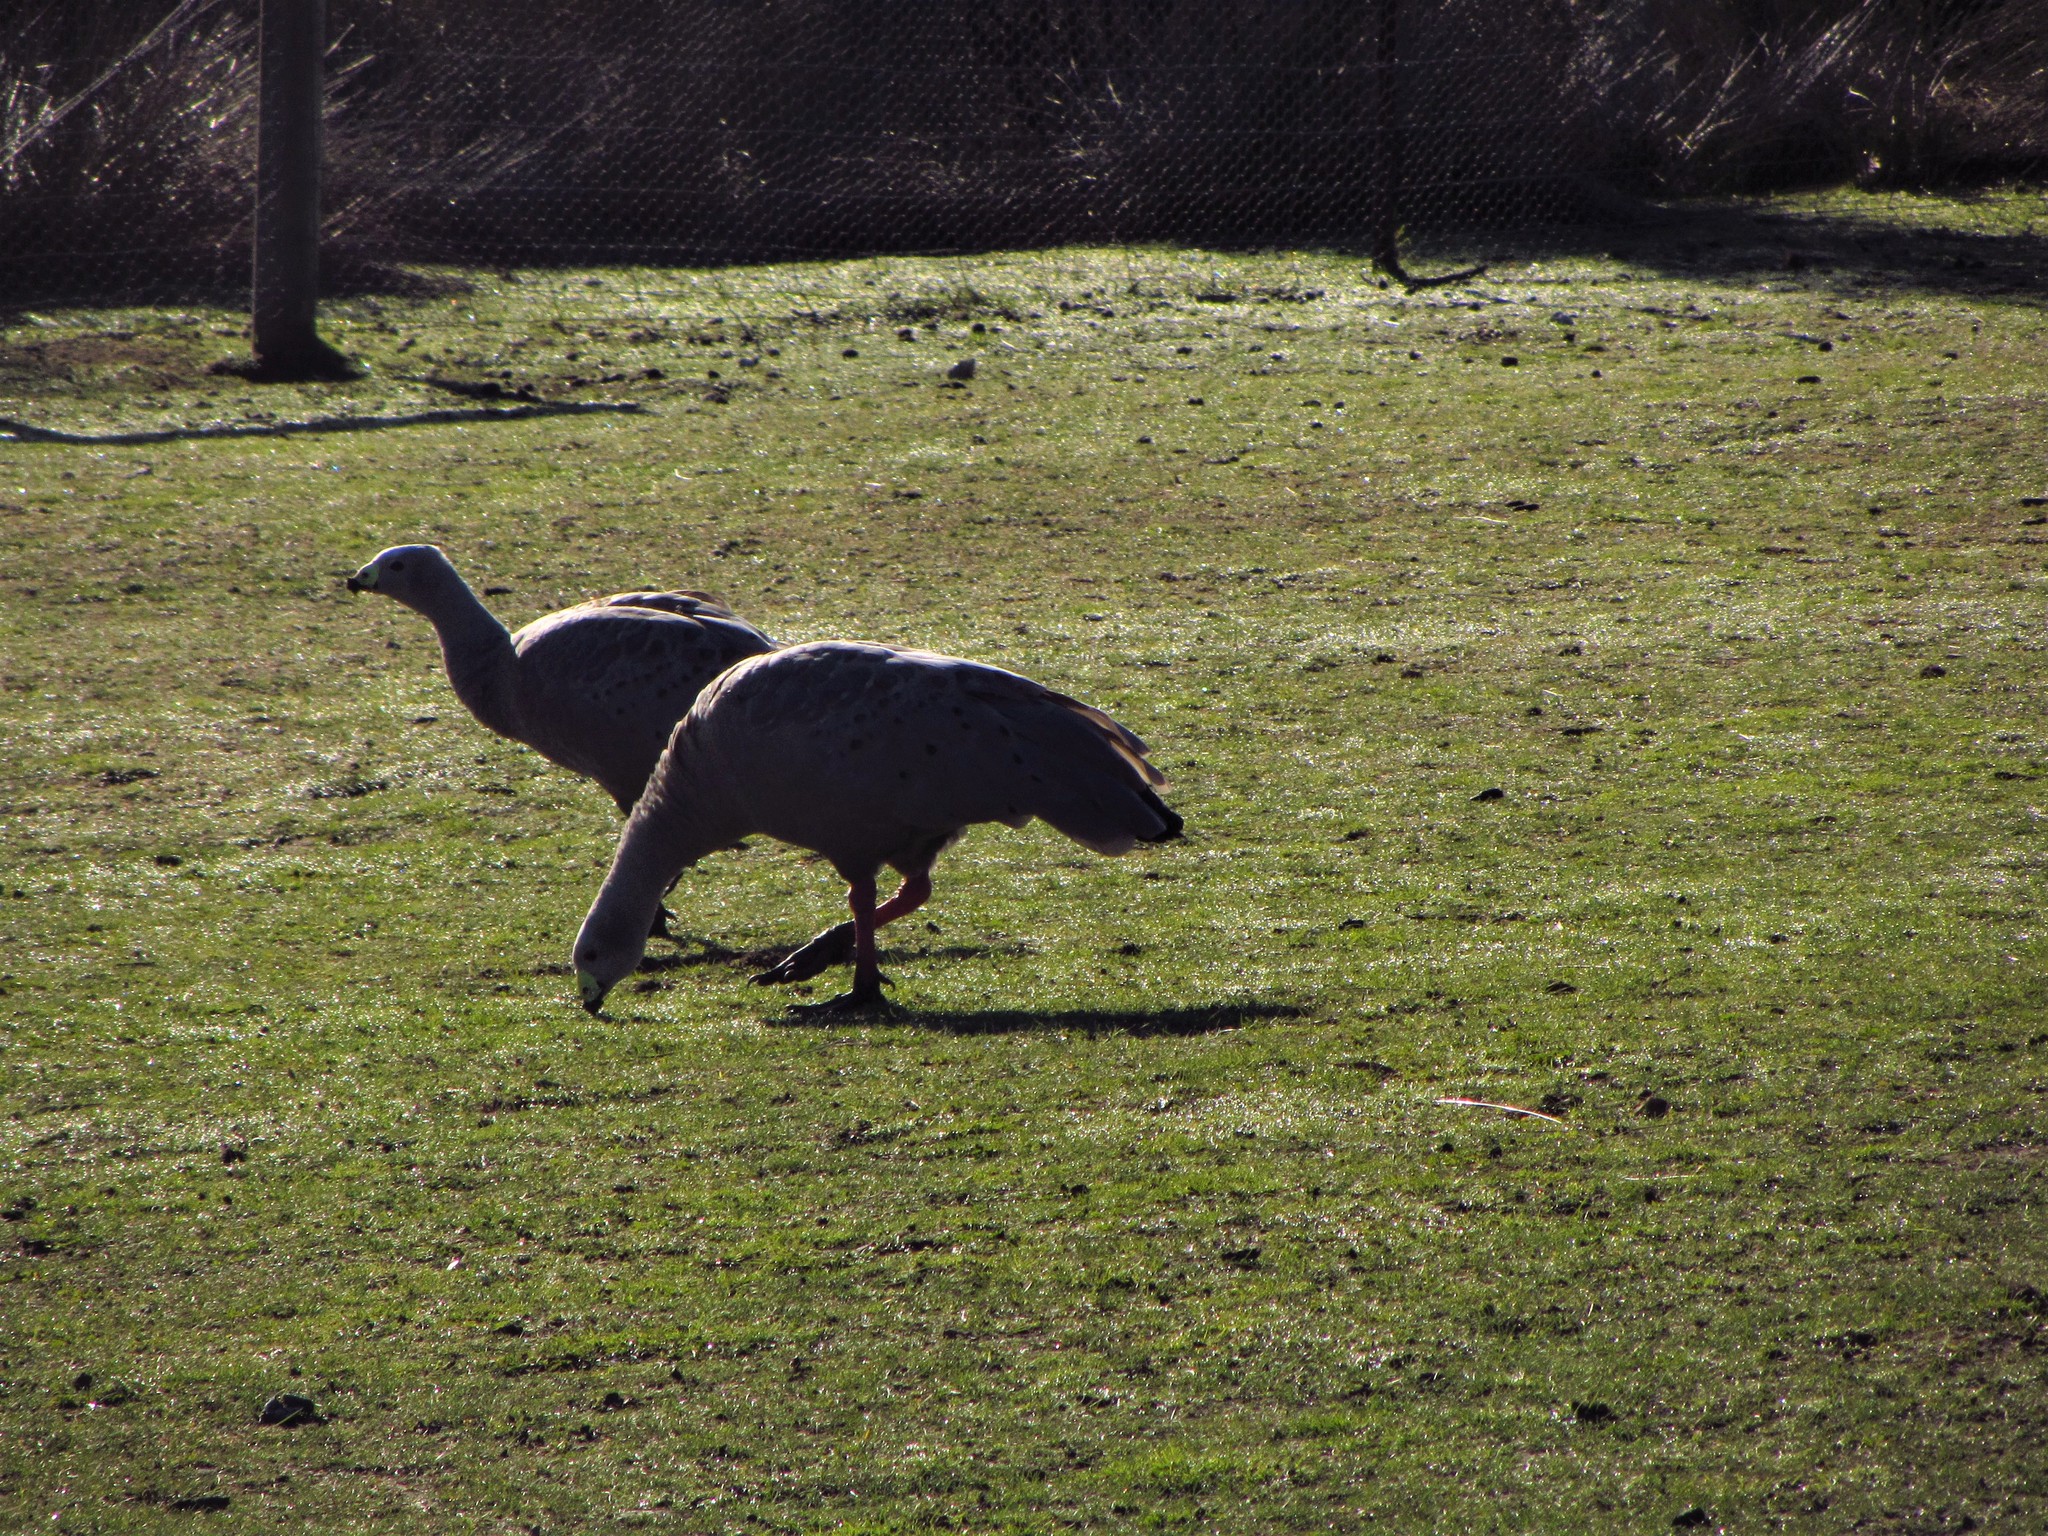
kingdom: Animalia
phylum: Chordata
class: Aves
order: Anseriformes
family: Anatidae
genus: Cereopsis
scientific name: Cereopsis novaehollandiae
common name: Cape barren goose
